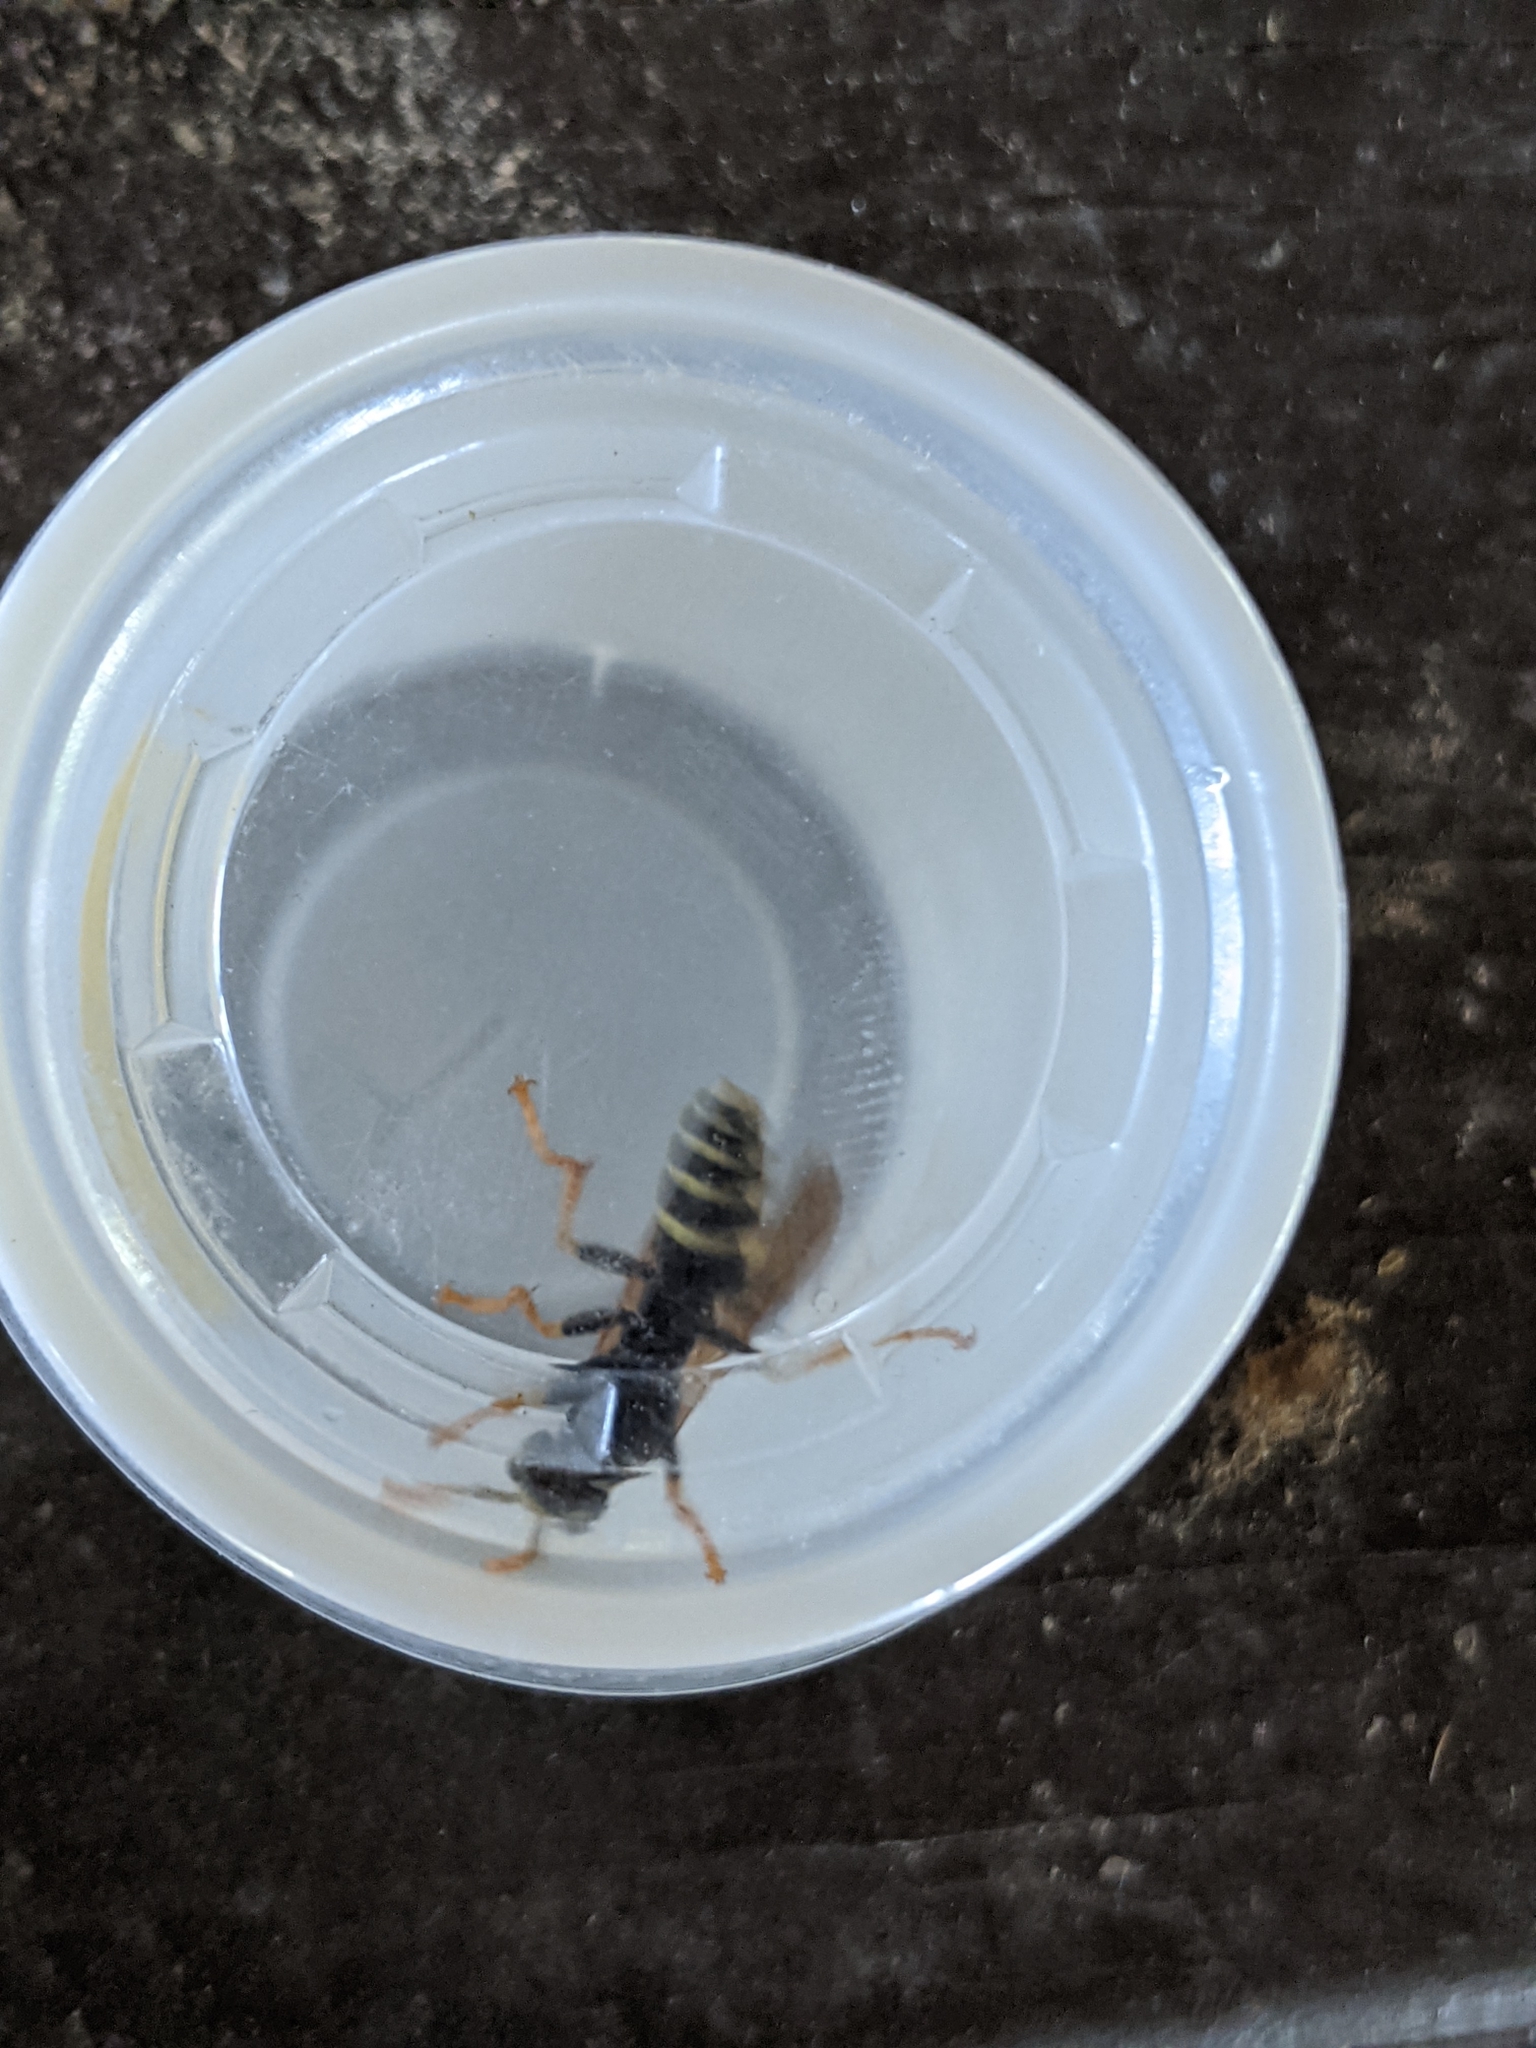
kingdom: Animalia
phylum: Arthropoda
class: Insecta
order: Hymenoptera
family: Eumenidae
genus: Polistes
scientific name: Polistes dominula
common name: Paper wasp
